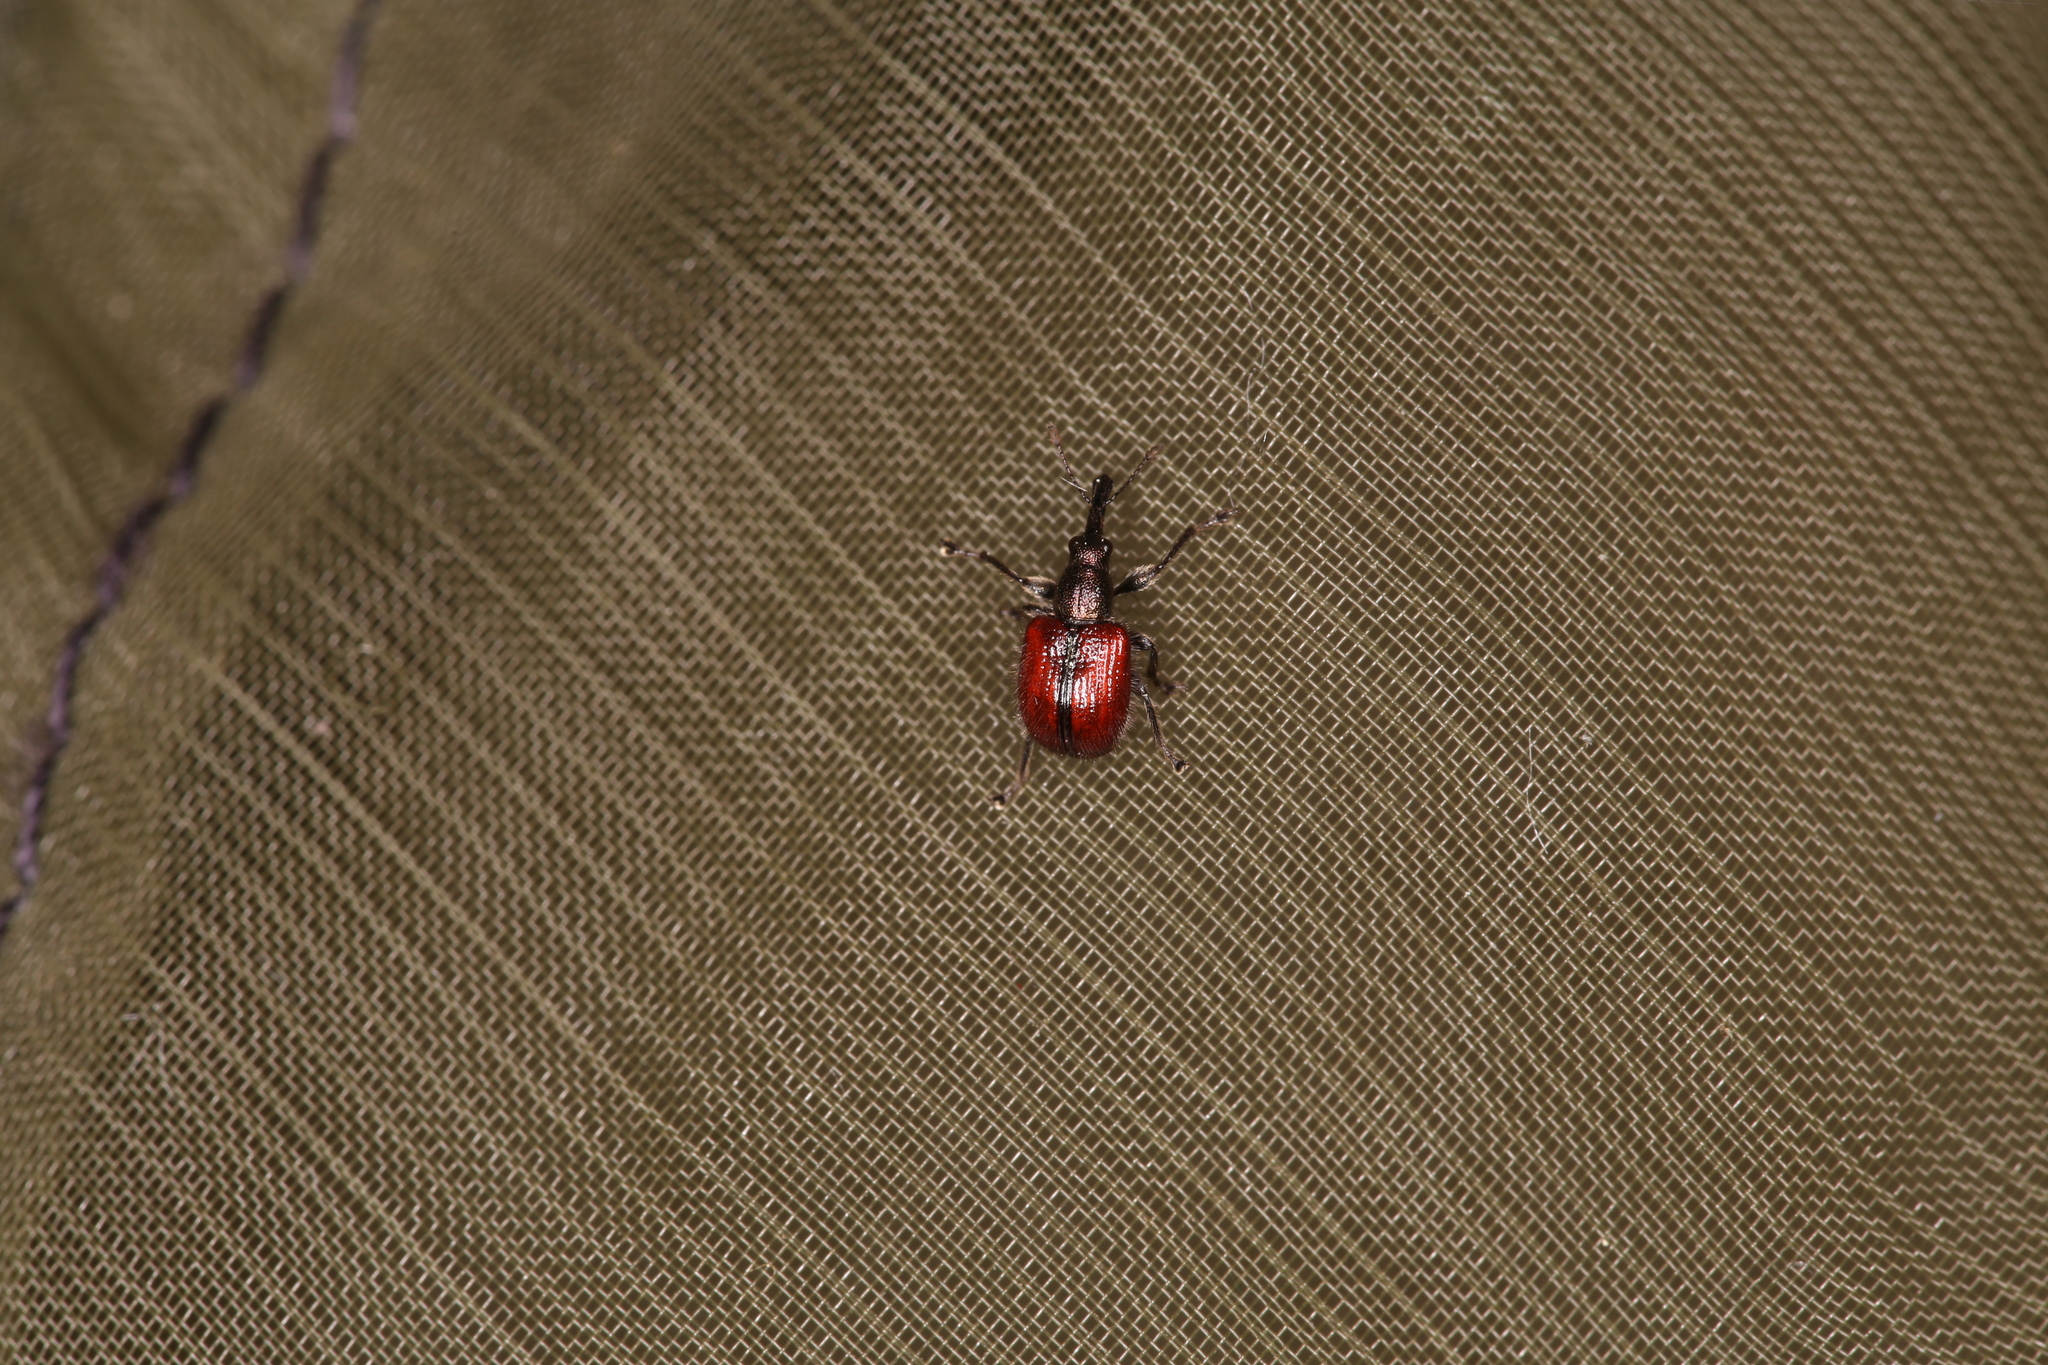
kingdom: Animalia
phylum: Arthropoda
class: Insecta
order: Coleoptera
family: Rhynchitidae
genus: Tatianaerhynchites
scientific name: Tatianaerhynchites aequatus
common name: Apple fruit rhynchites
